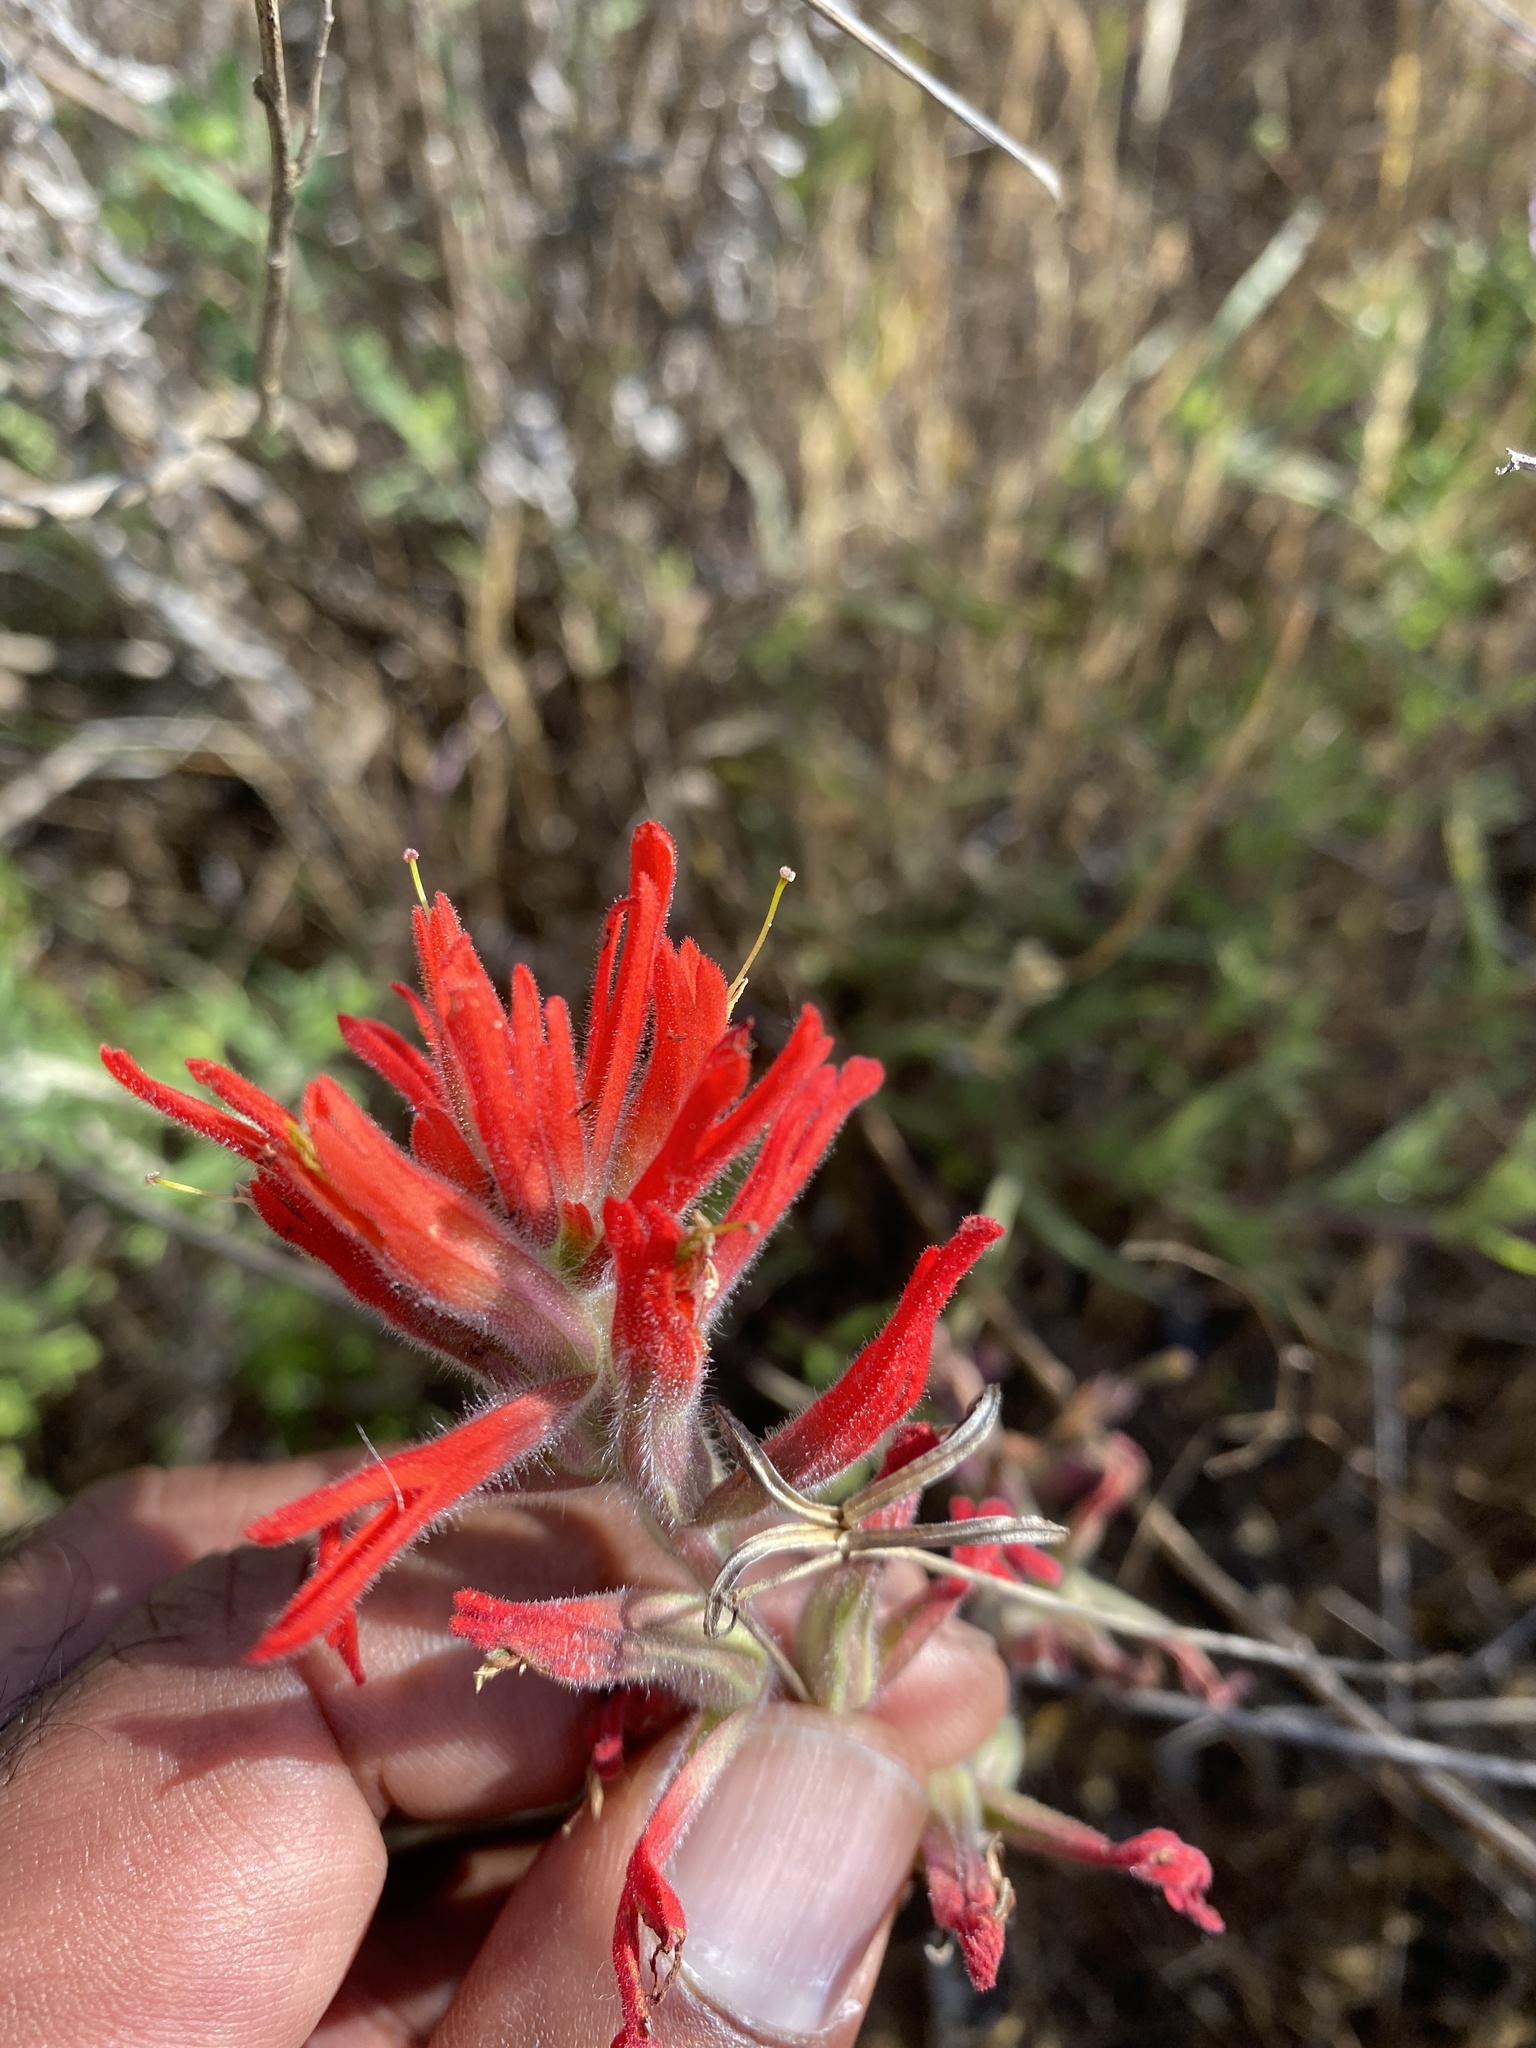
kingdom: Plantae
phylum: Tracheophyta
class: Magnoliopsida
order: Lamiales
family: Orobanchaceae
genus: Castilleja
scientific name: Castilleja affinis
